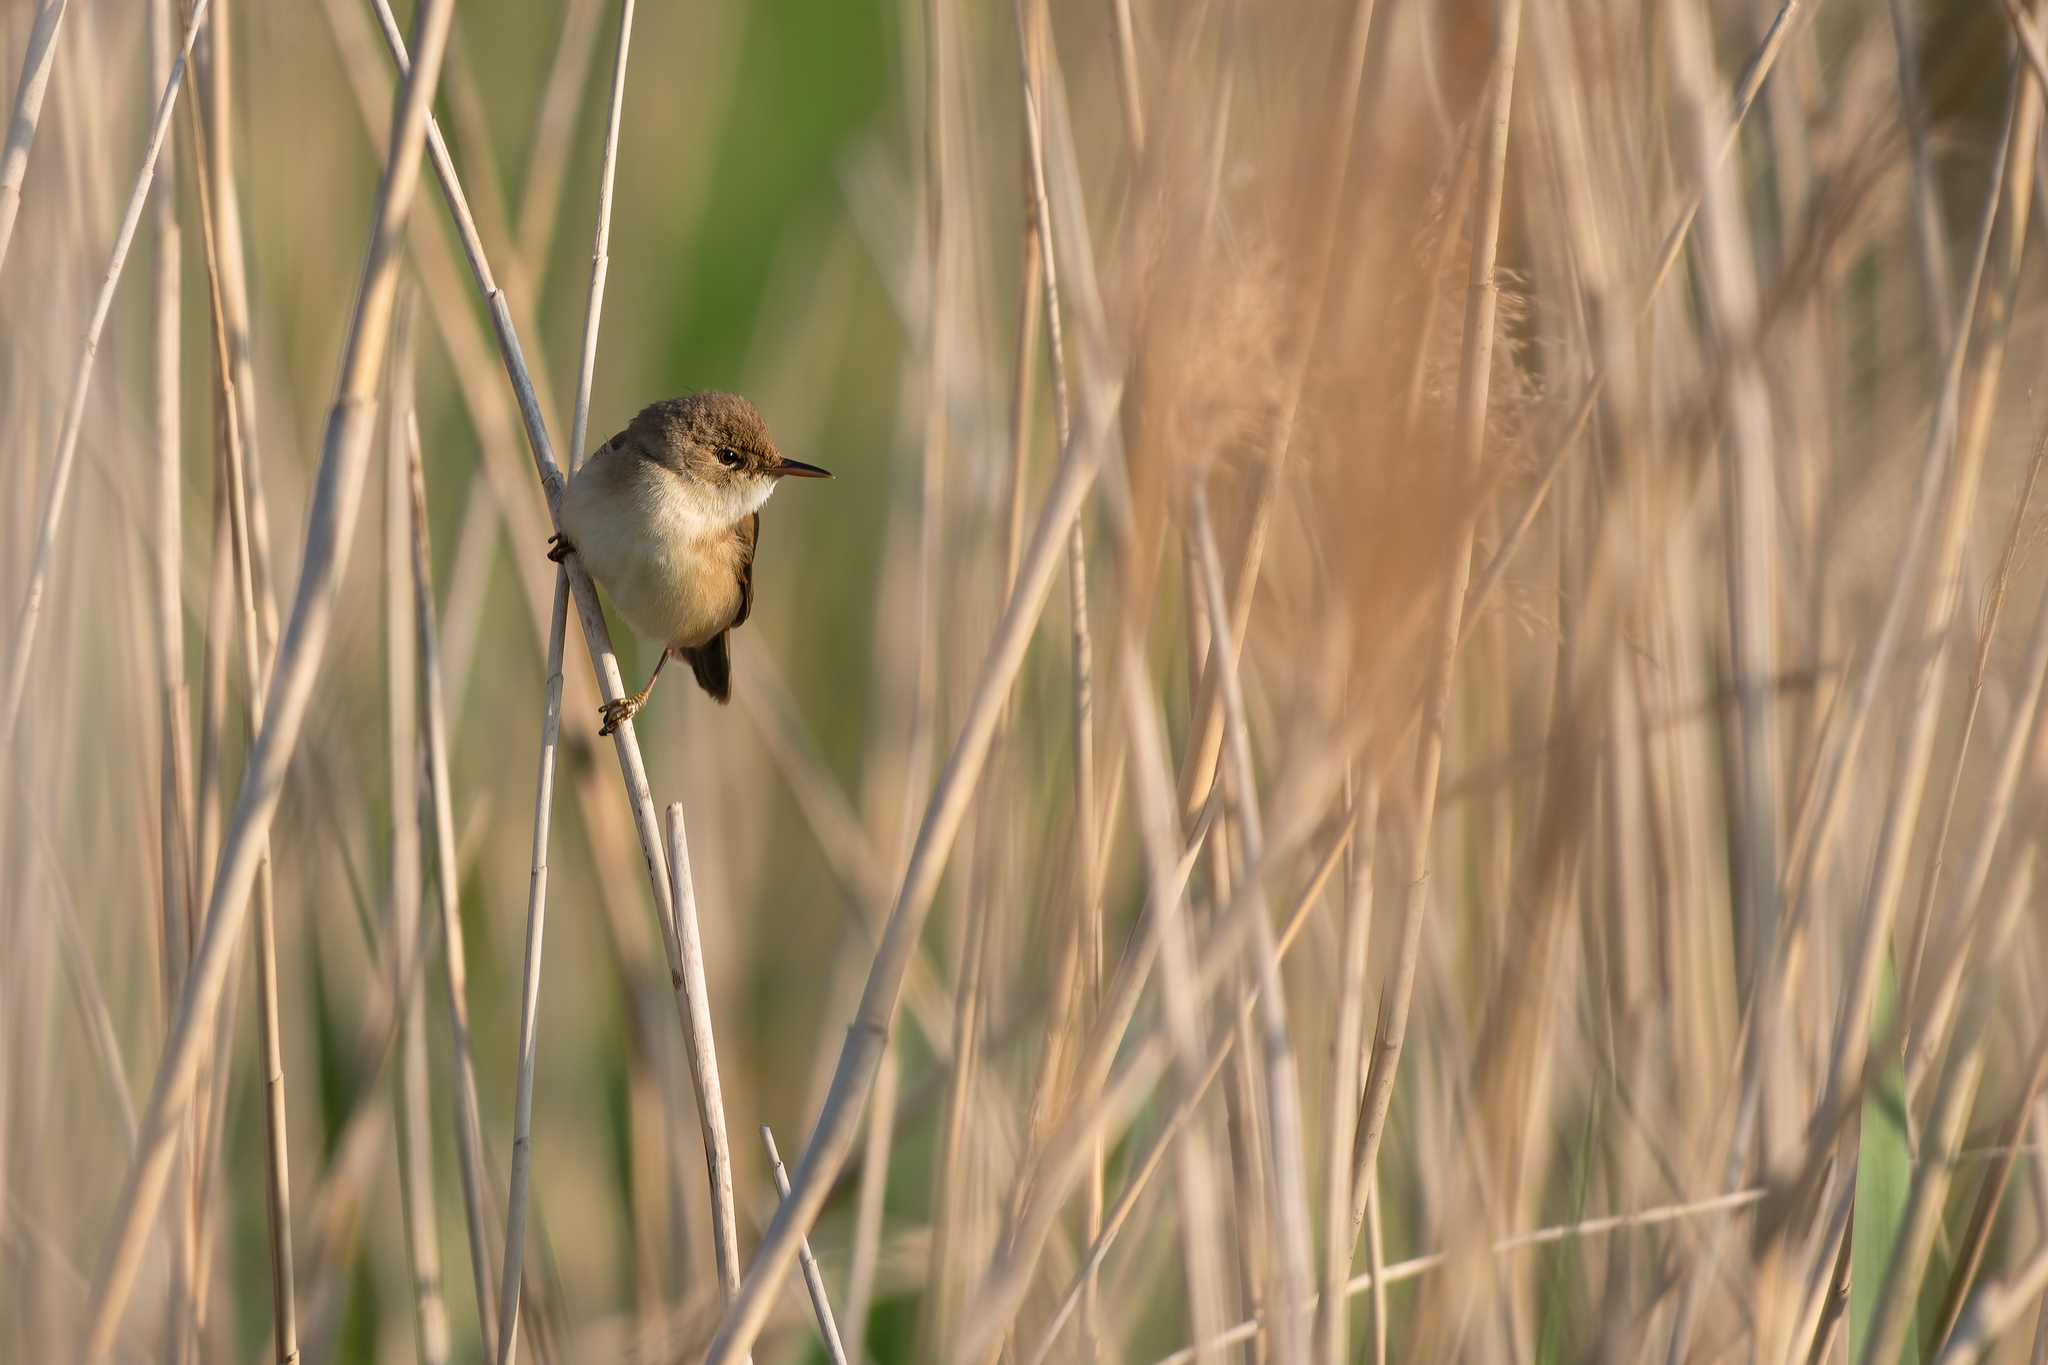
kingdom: Animalia
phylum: Chordata
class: Aves
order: Passeriformes
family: Acrocephalidae
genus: Acrocephalus
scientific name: Acrocephalus scirpaceus
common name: Eurasian reed warbler
